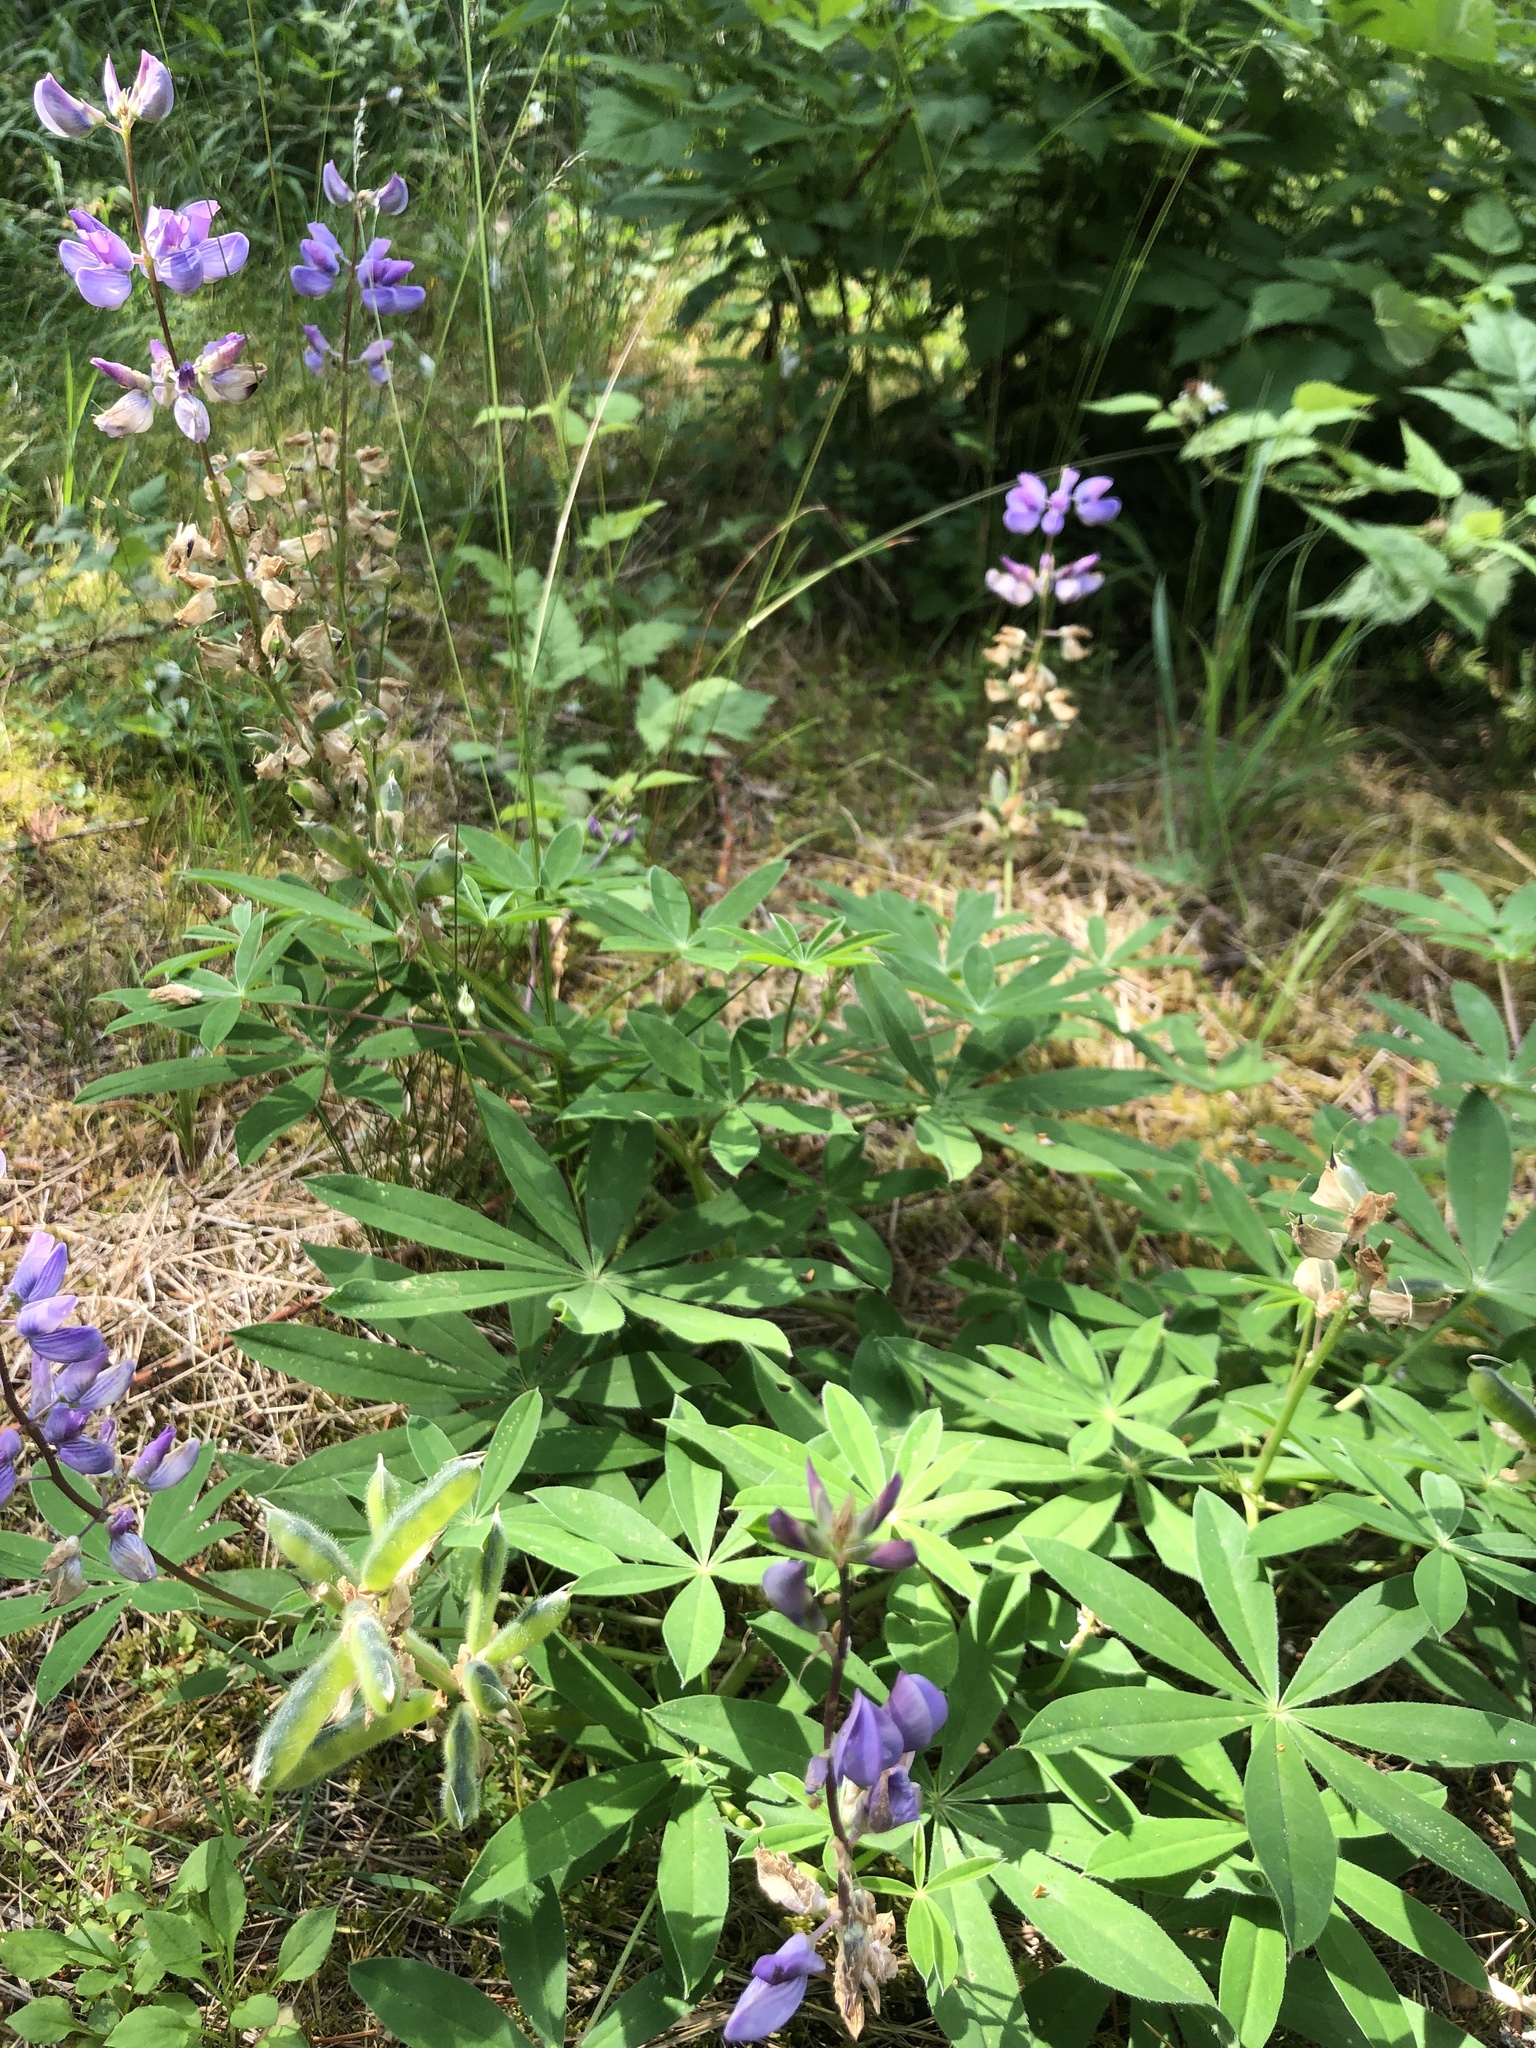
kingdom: Plantae
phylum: Tracheophyta
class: Magnoliopsida
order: Fabales
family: Fabaceae
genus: Lupinus
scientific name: Lupinus latifolius
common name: Broad-leaved lupine
